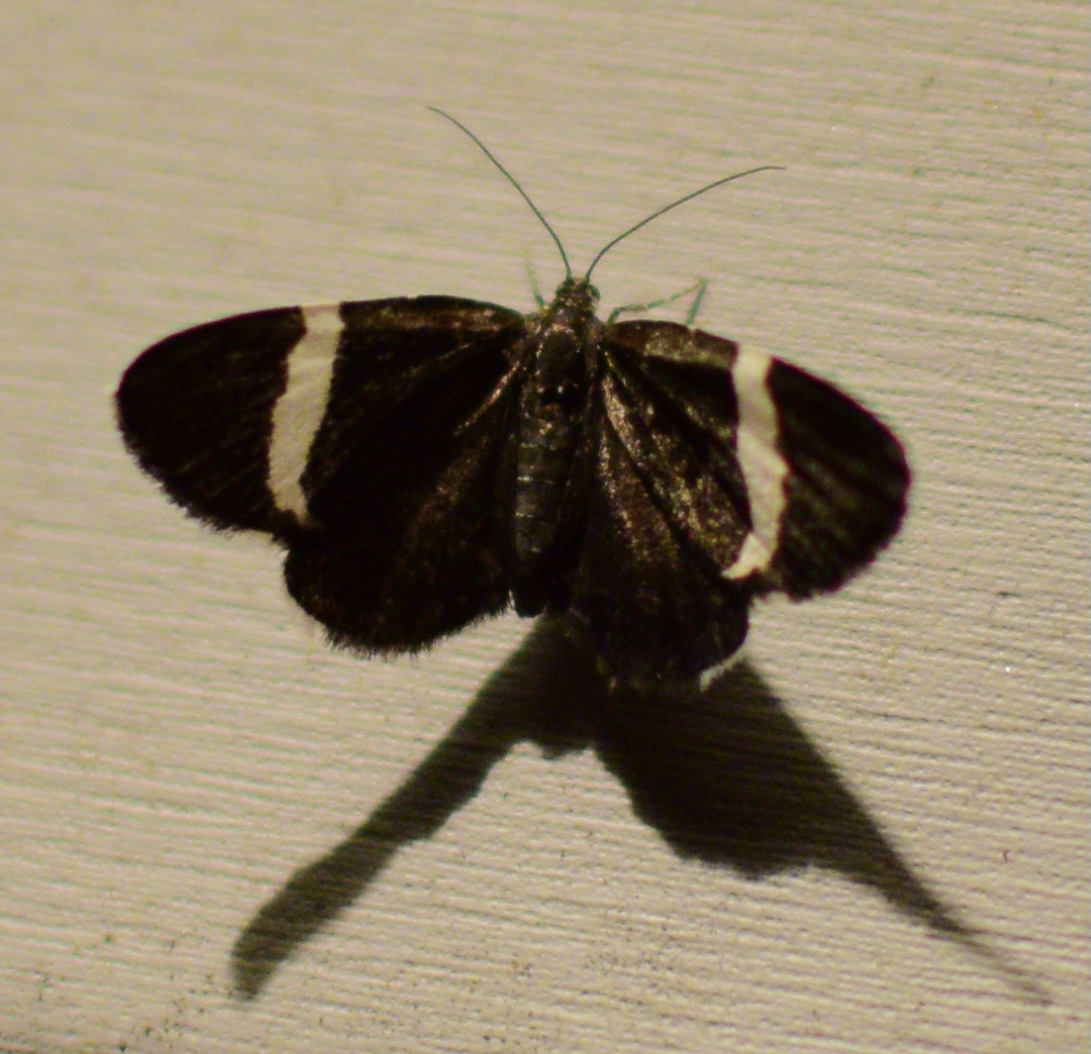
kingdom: Animalia
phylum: Arthropoda
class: Insecta
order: Lepidoptera
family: Geometridae
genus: Trichodezia
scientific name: Trichodezia albovittata
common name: White striped black
